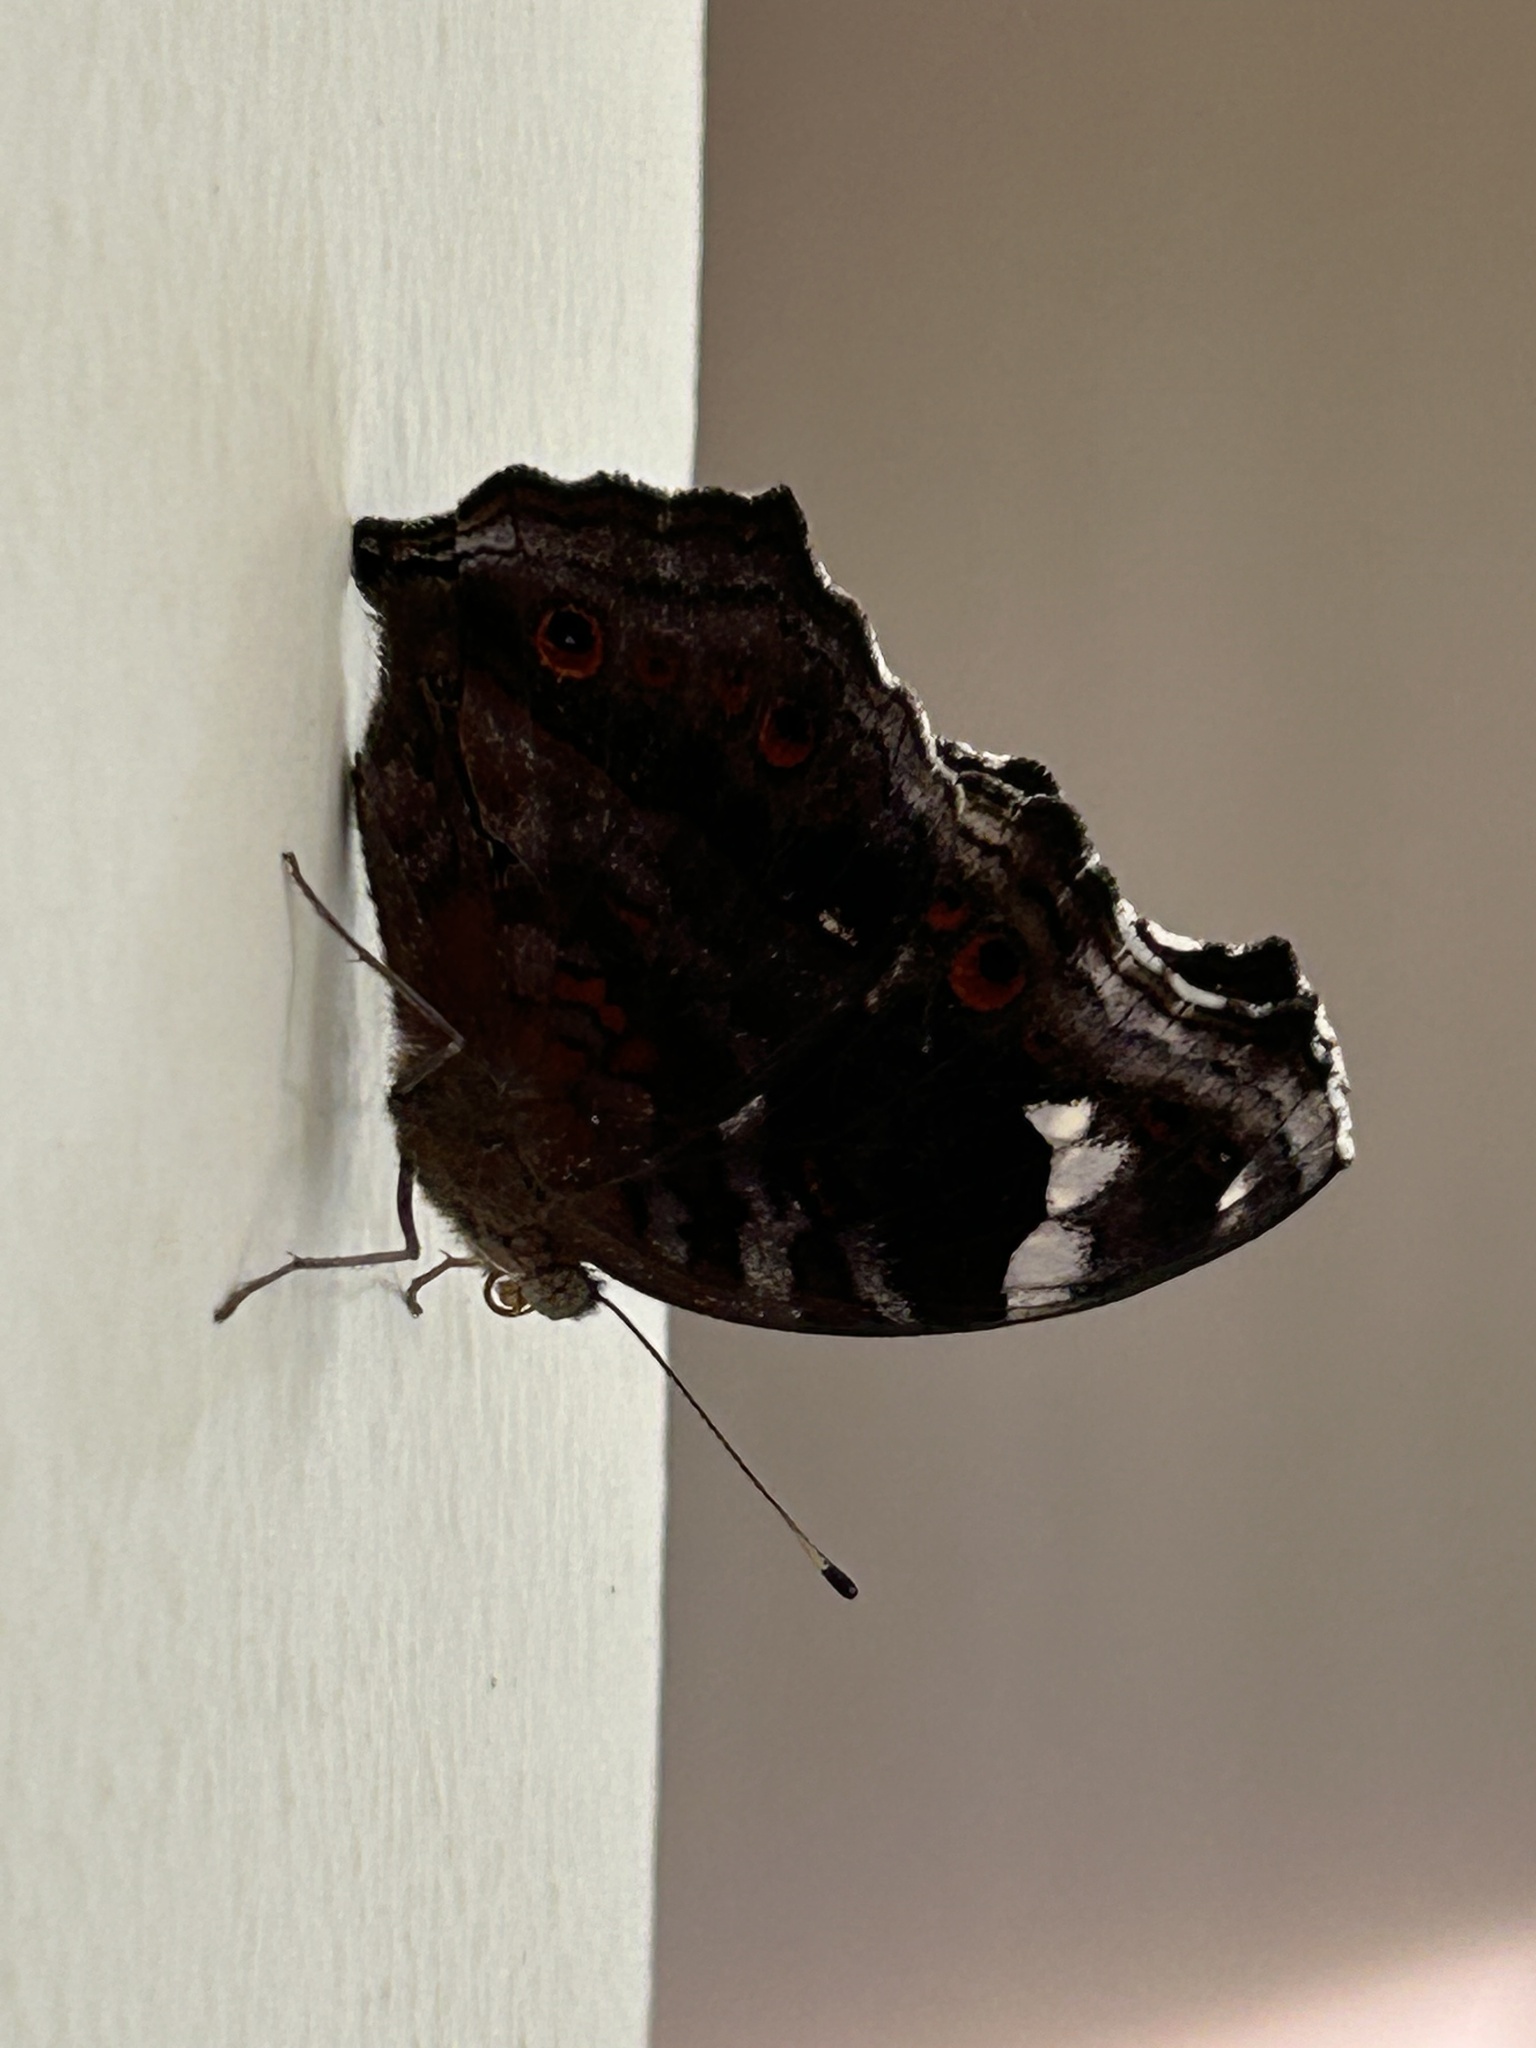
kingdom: Animalia
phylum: Arthropoda
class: Insecta
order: Lepidoptera
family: Nymphalidae
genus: Junonia
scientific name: Junonia natalica
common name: Brown pansy
